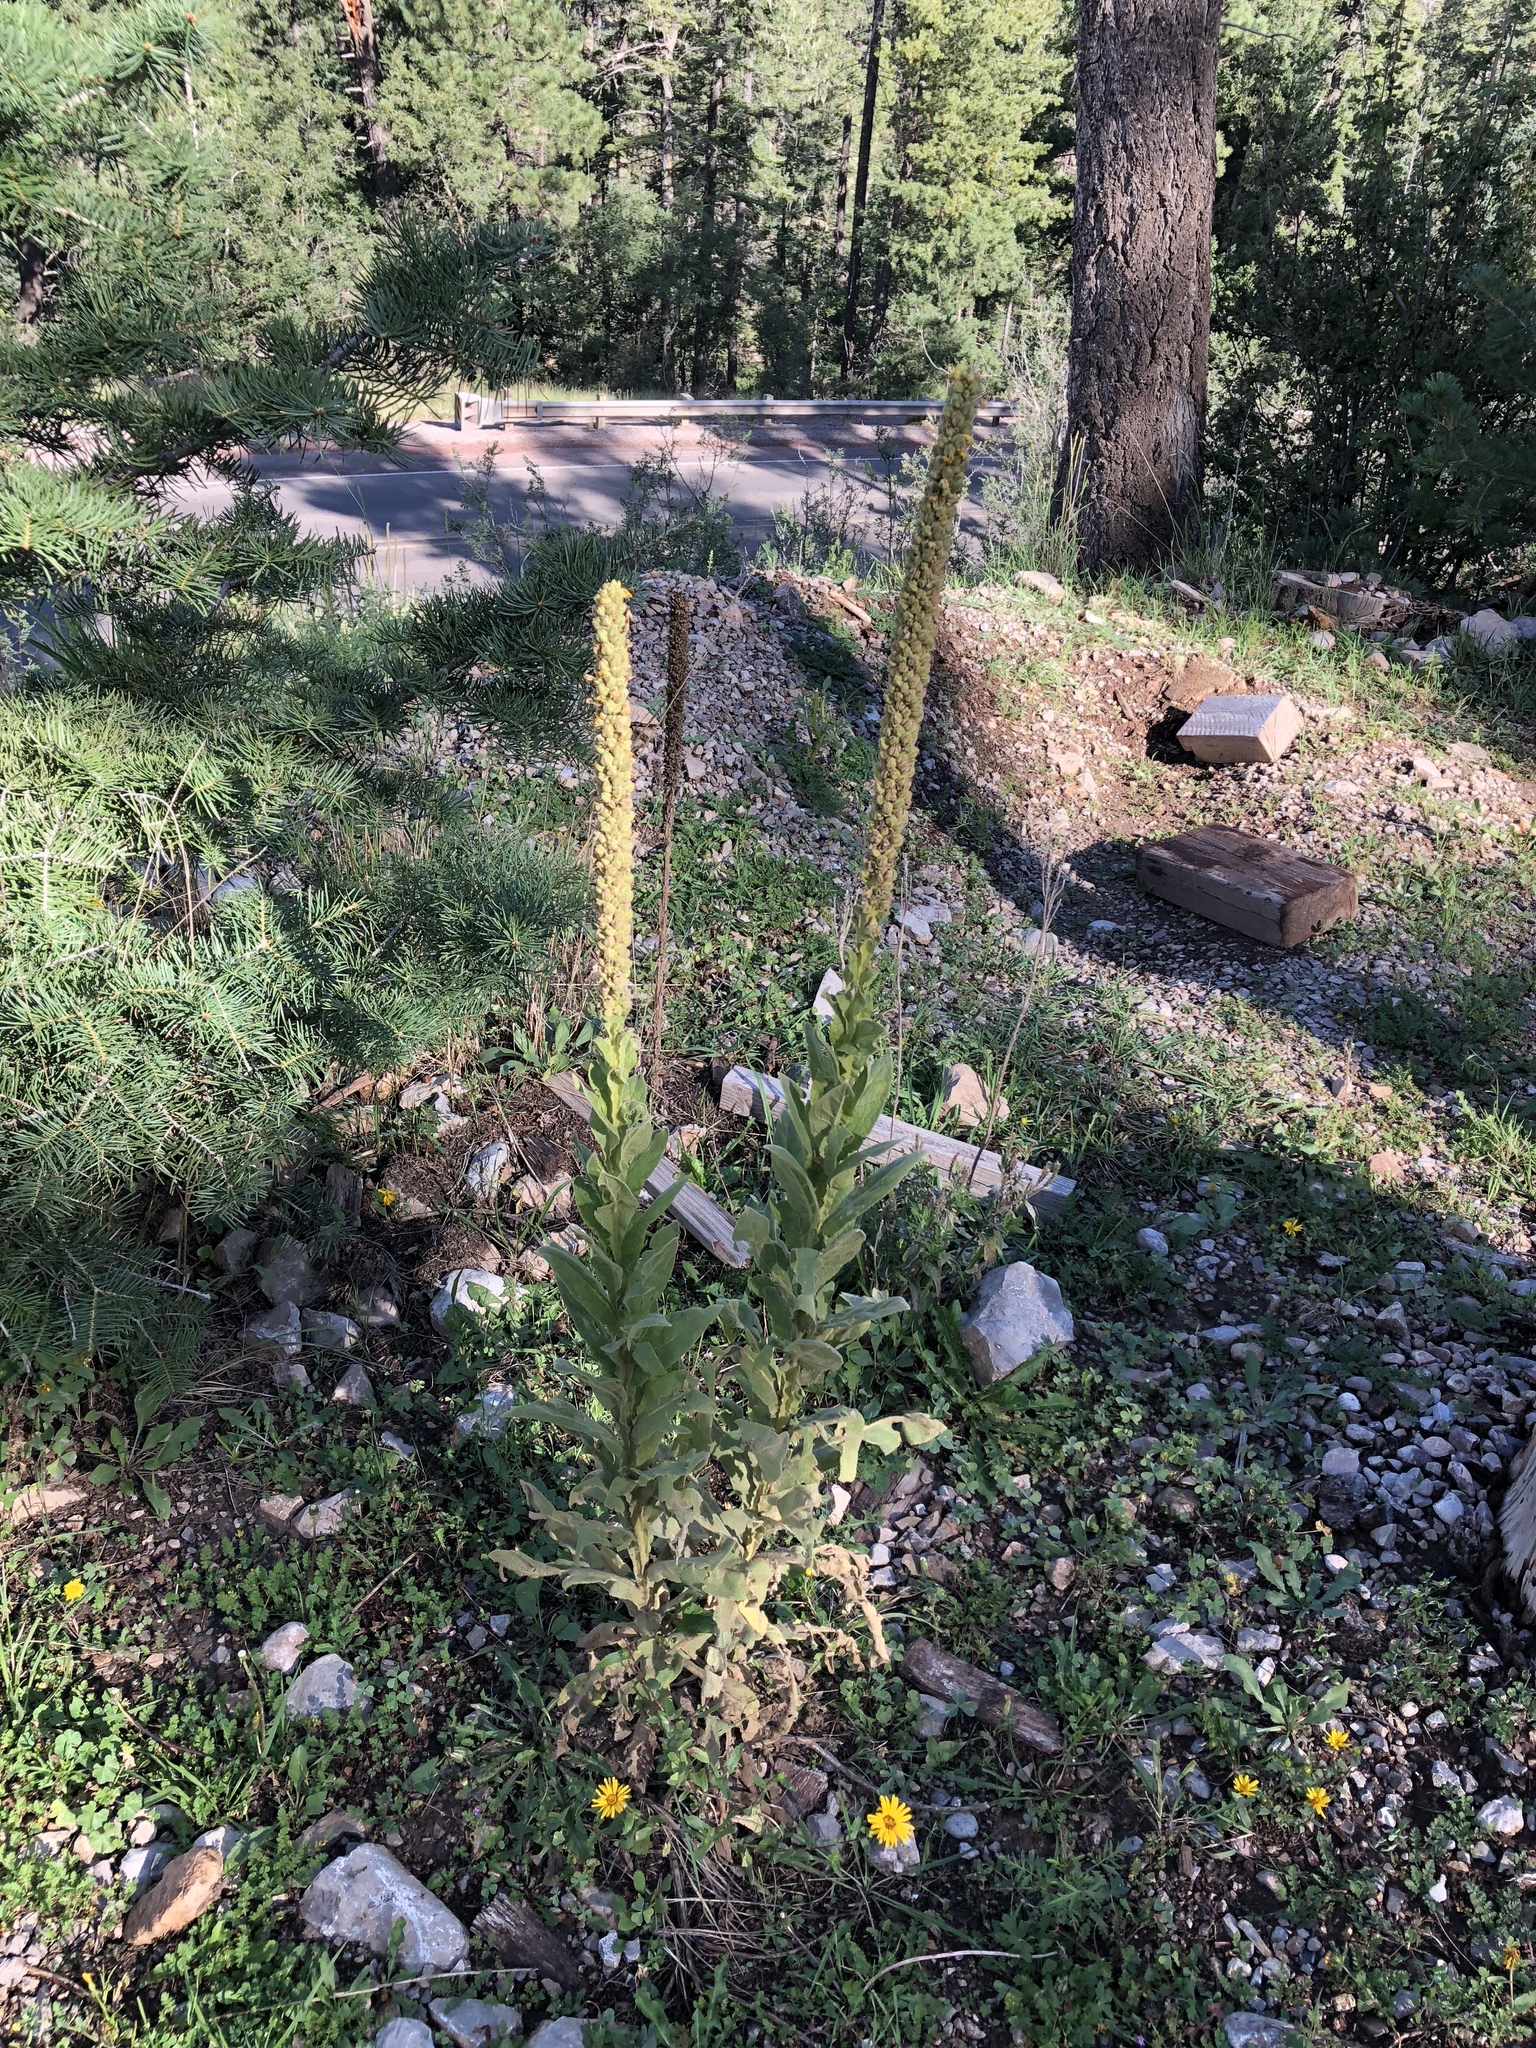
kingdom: Plantae
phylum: Tracheophyta
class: Magnoliopsida
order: Lamiales
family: Scrophulariaceae
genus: Verbascum
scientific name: Verbascum thapsus
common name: Common mullein
